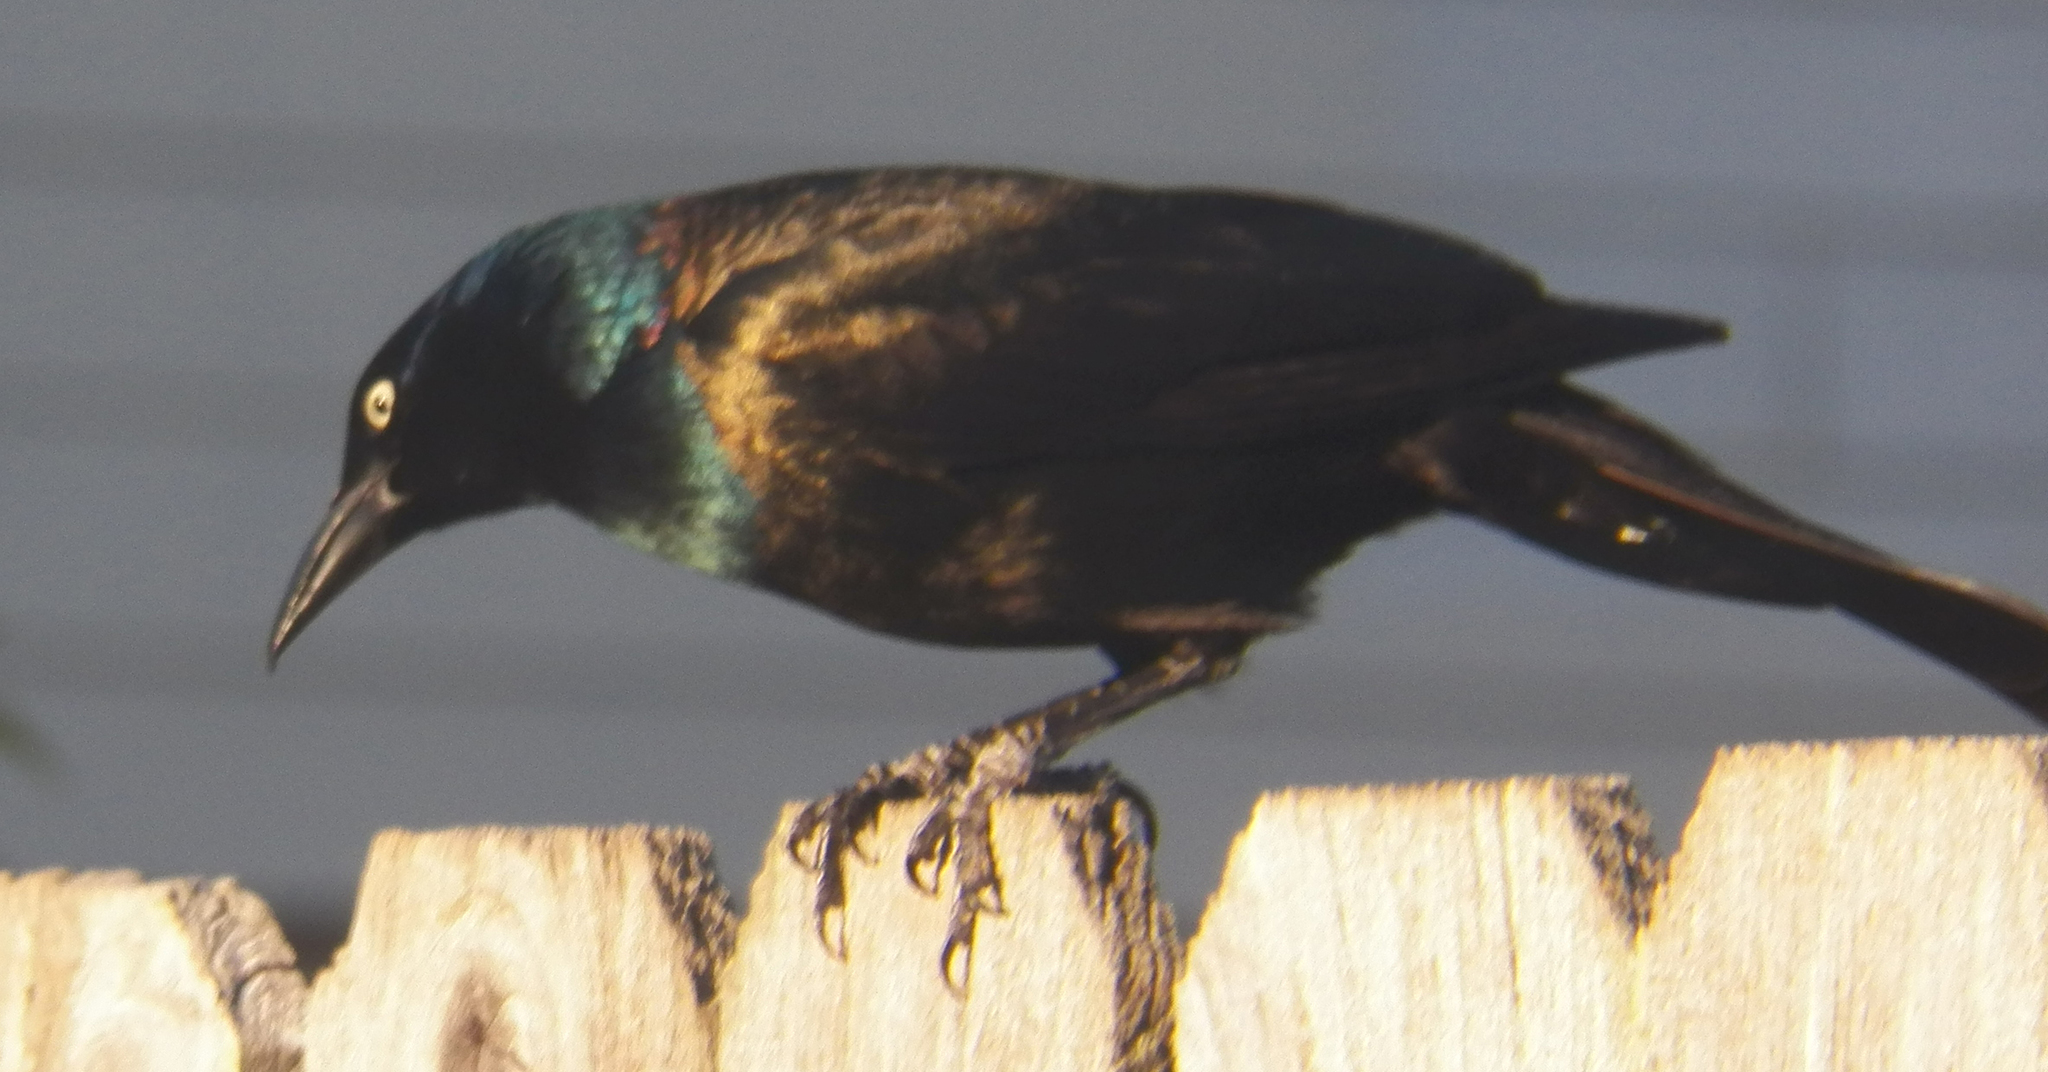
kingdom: Animalia
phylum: Chordata
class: Aves
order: Passeriformes
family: Icteridae
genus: Quiscalus
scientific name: Quiscalus quiscula
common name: Common grackle
